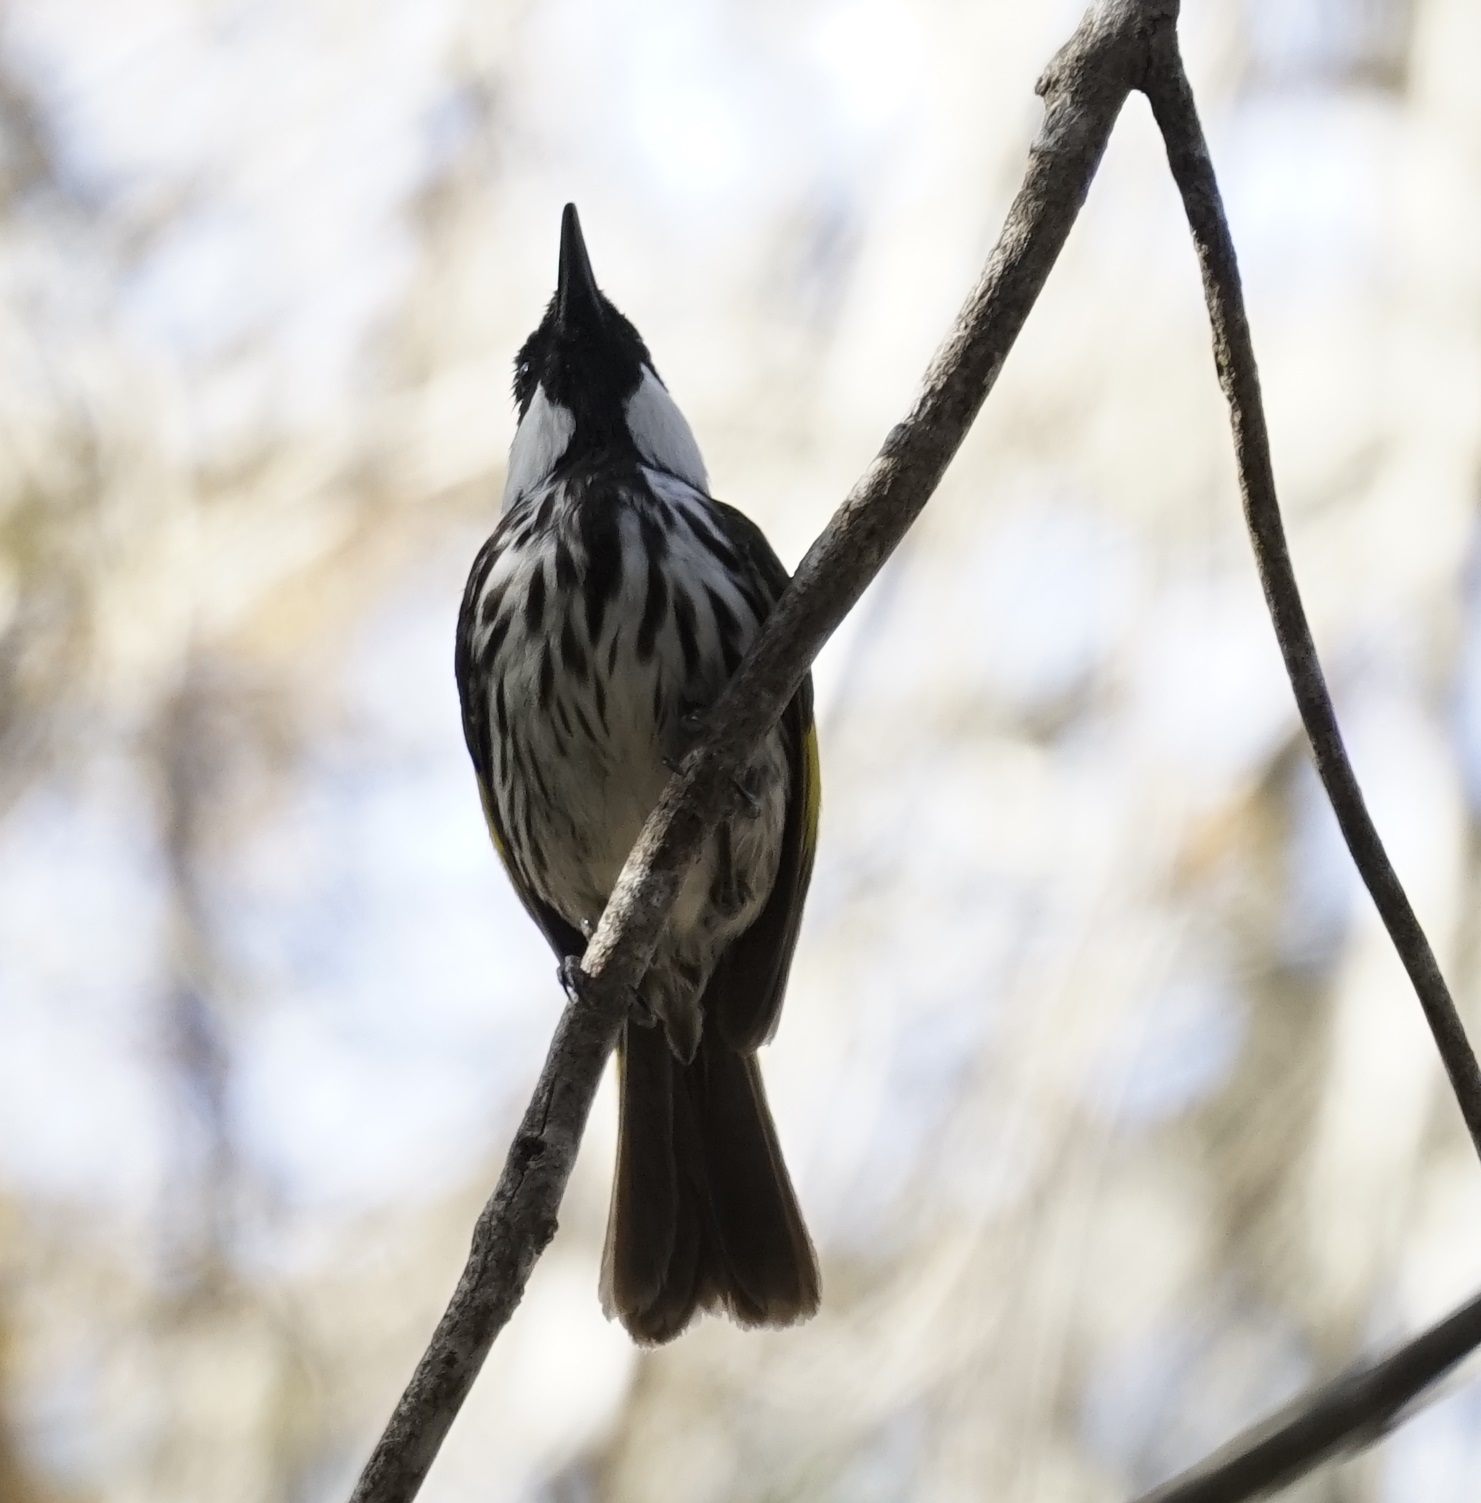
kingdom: Animalia
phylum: Chordata
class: Aves
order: Passeriformes
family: Meliphagidae
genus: Phylidonyris
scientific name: Phylidonyris niger
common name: White-cheeked honeyeater
